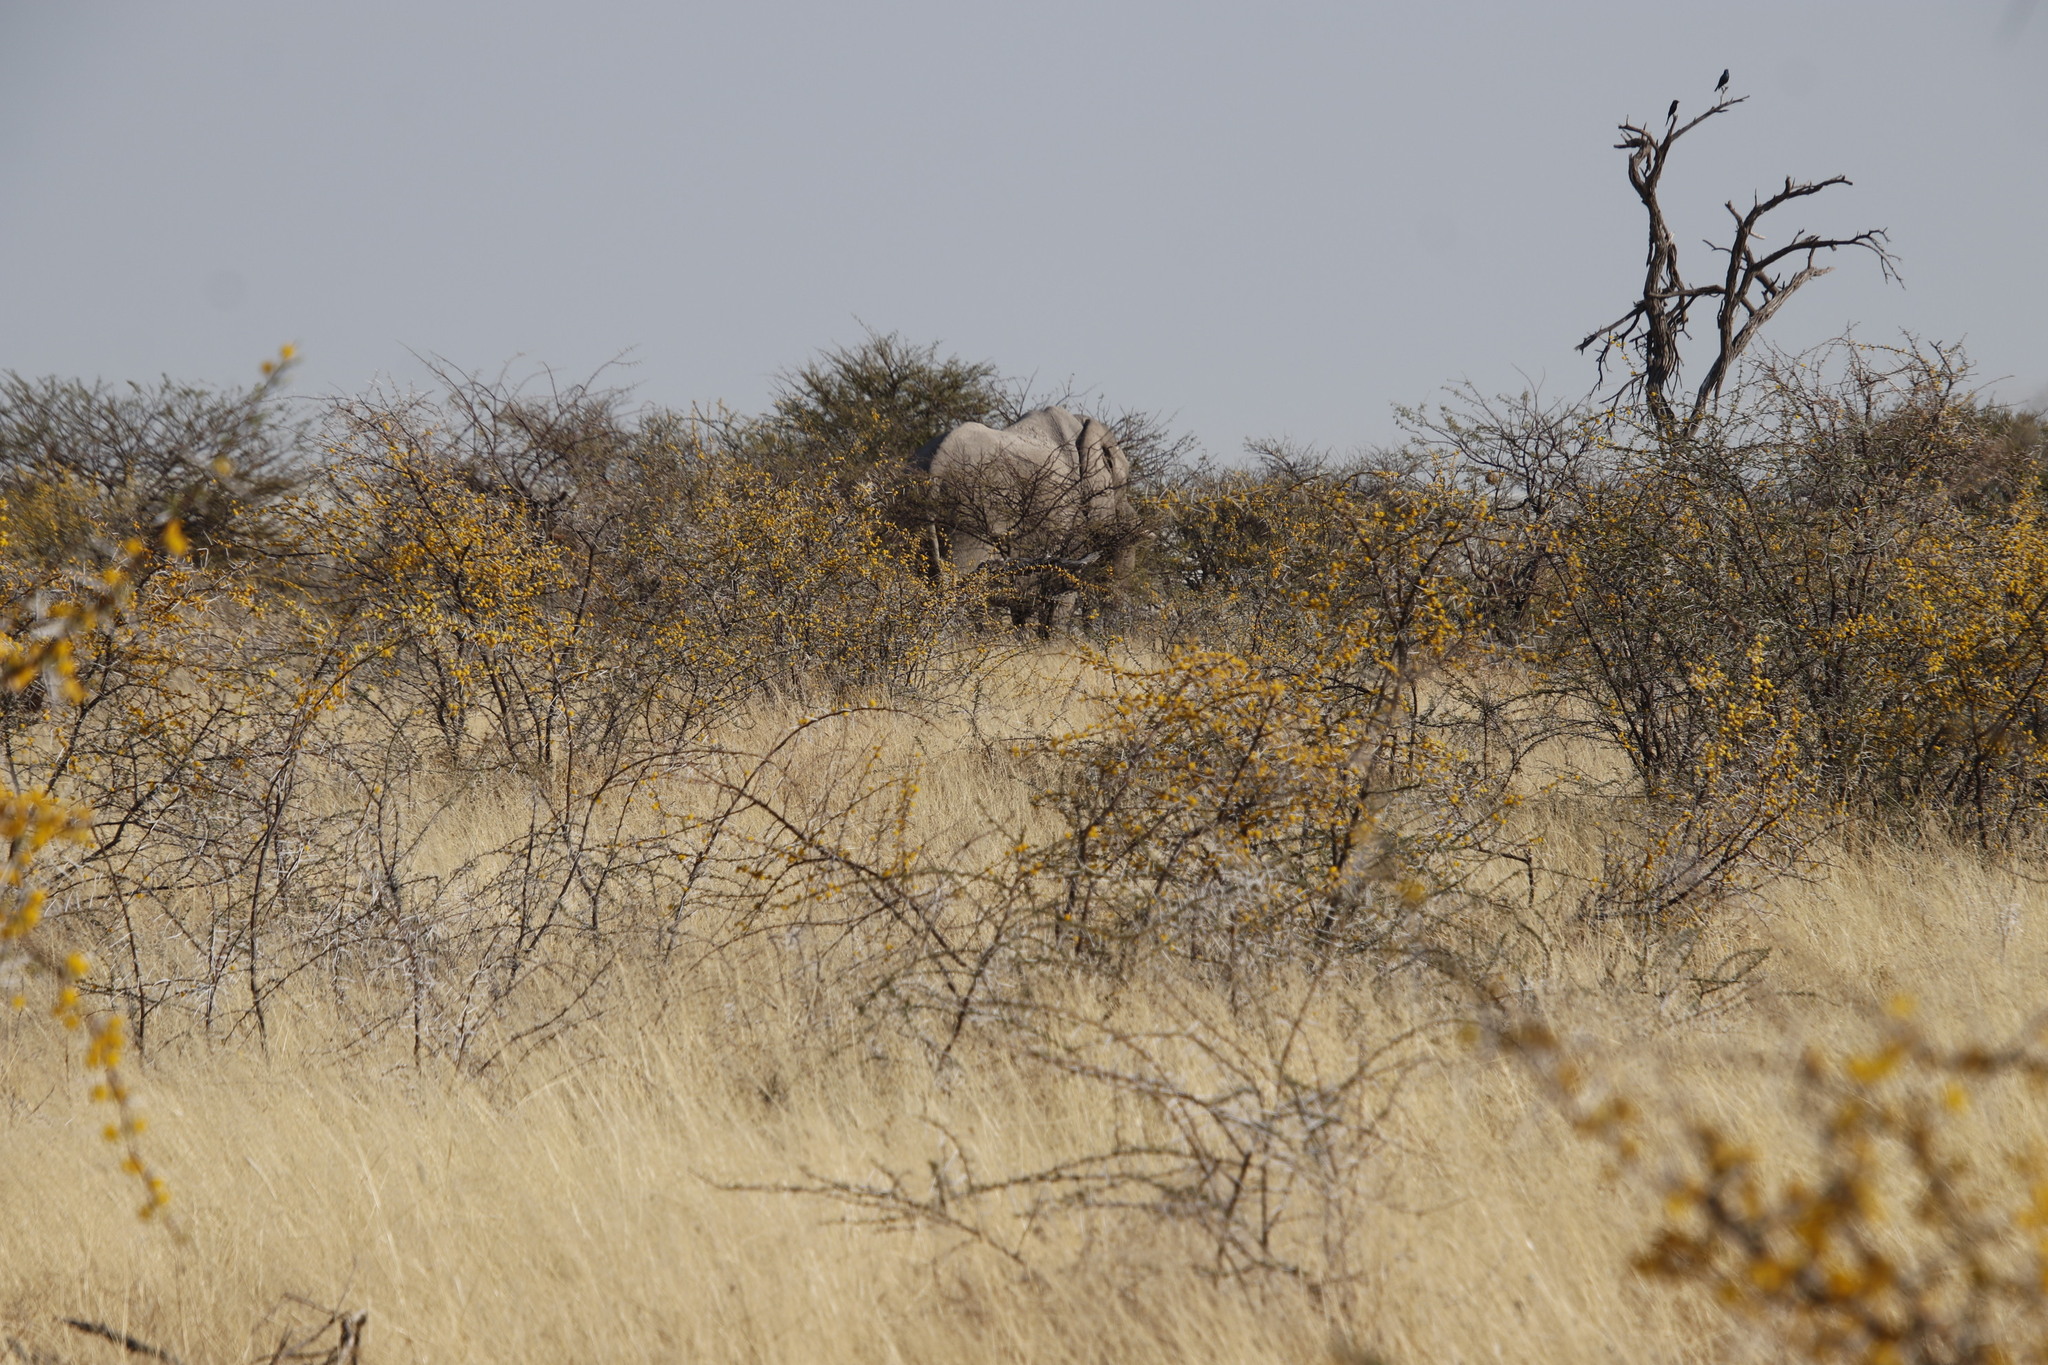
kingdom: Plantae
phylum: Tracheophyta
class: Magnoliopsida
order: Fabales
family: Fabaceae
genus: Vachellia
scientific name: Vachellia nebrownii
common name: Water acacia
